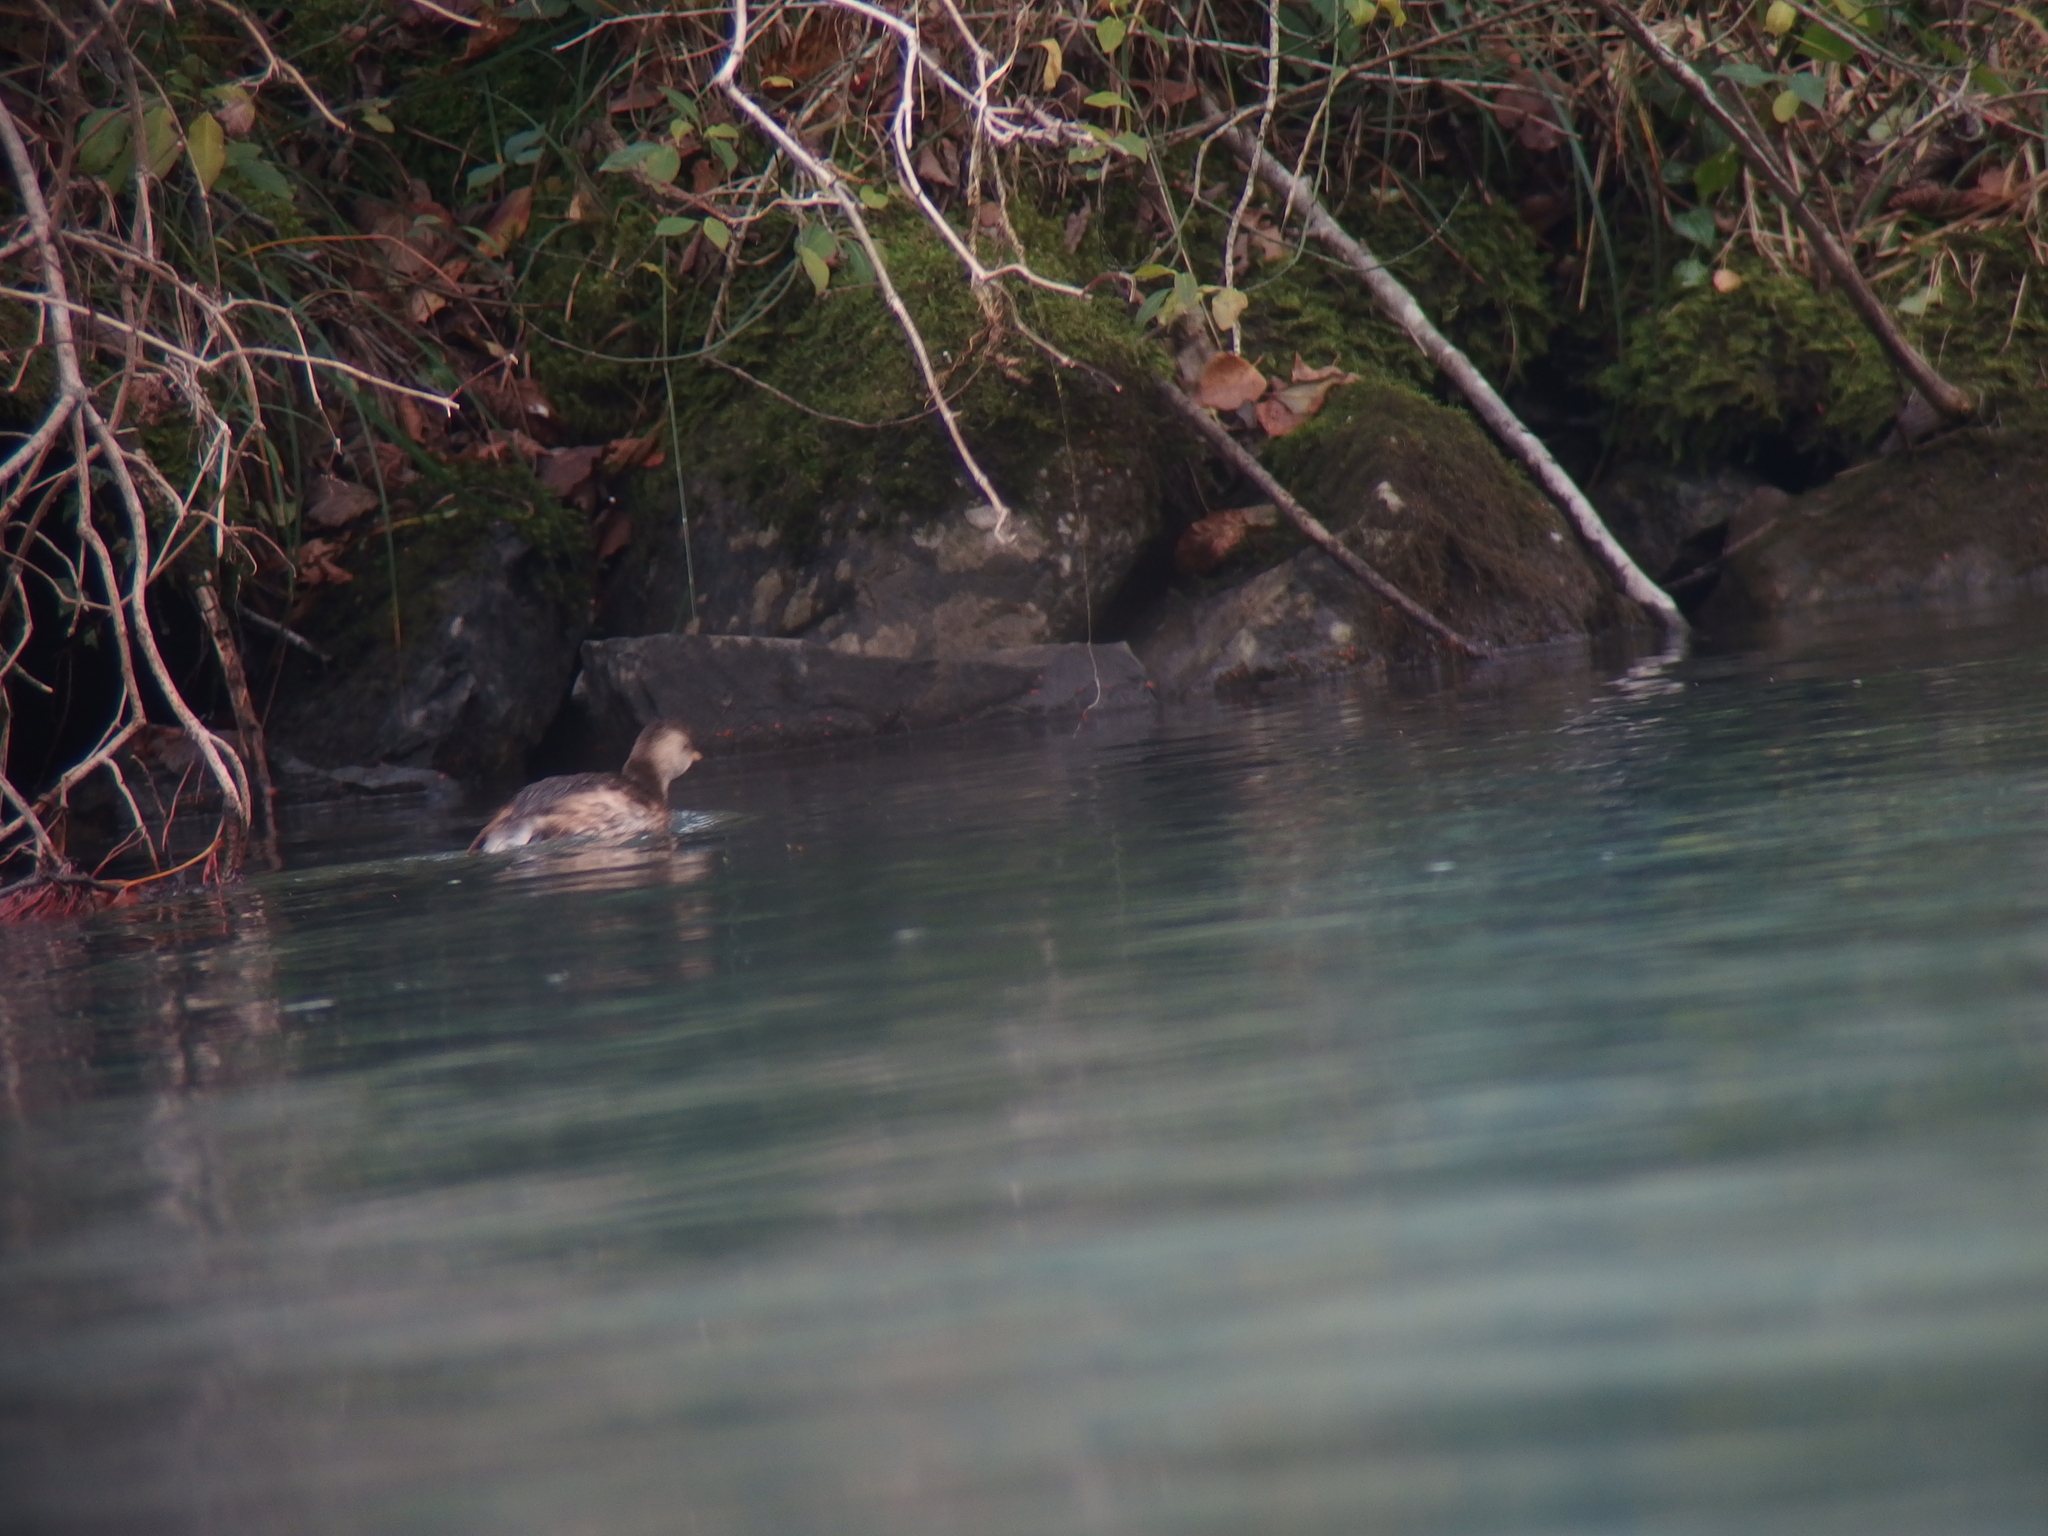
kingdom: Animalia
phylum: Chordata
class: Aves
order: Podicipediformes
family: Podicipedidae
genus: Tachybaptus
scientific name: Tachybaptus ruficollis
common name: Little grebe
